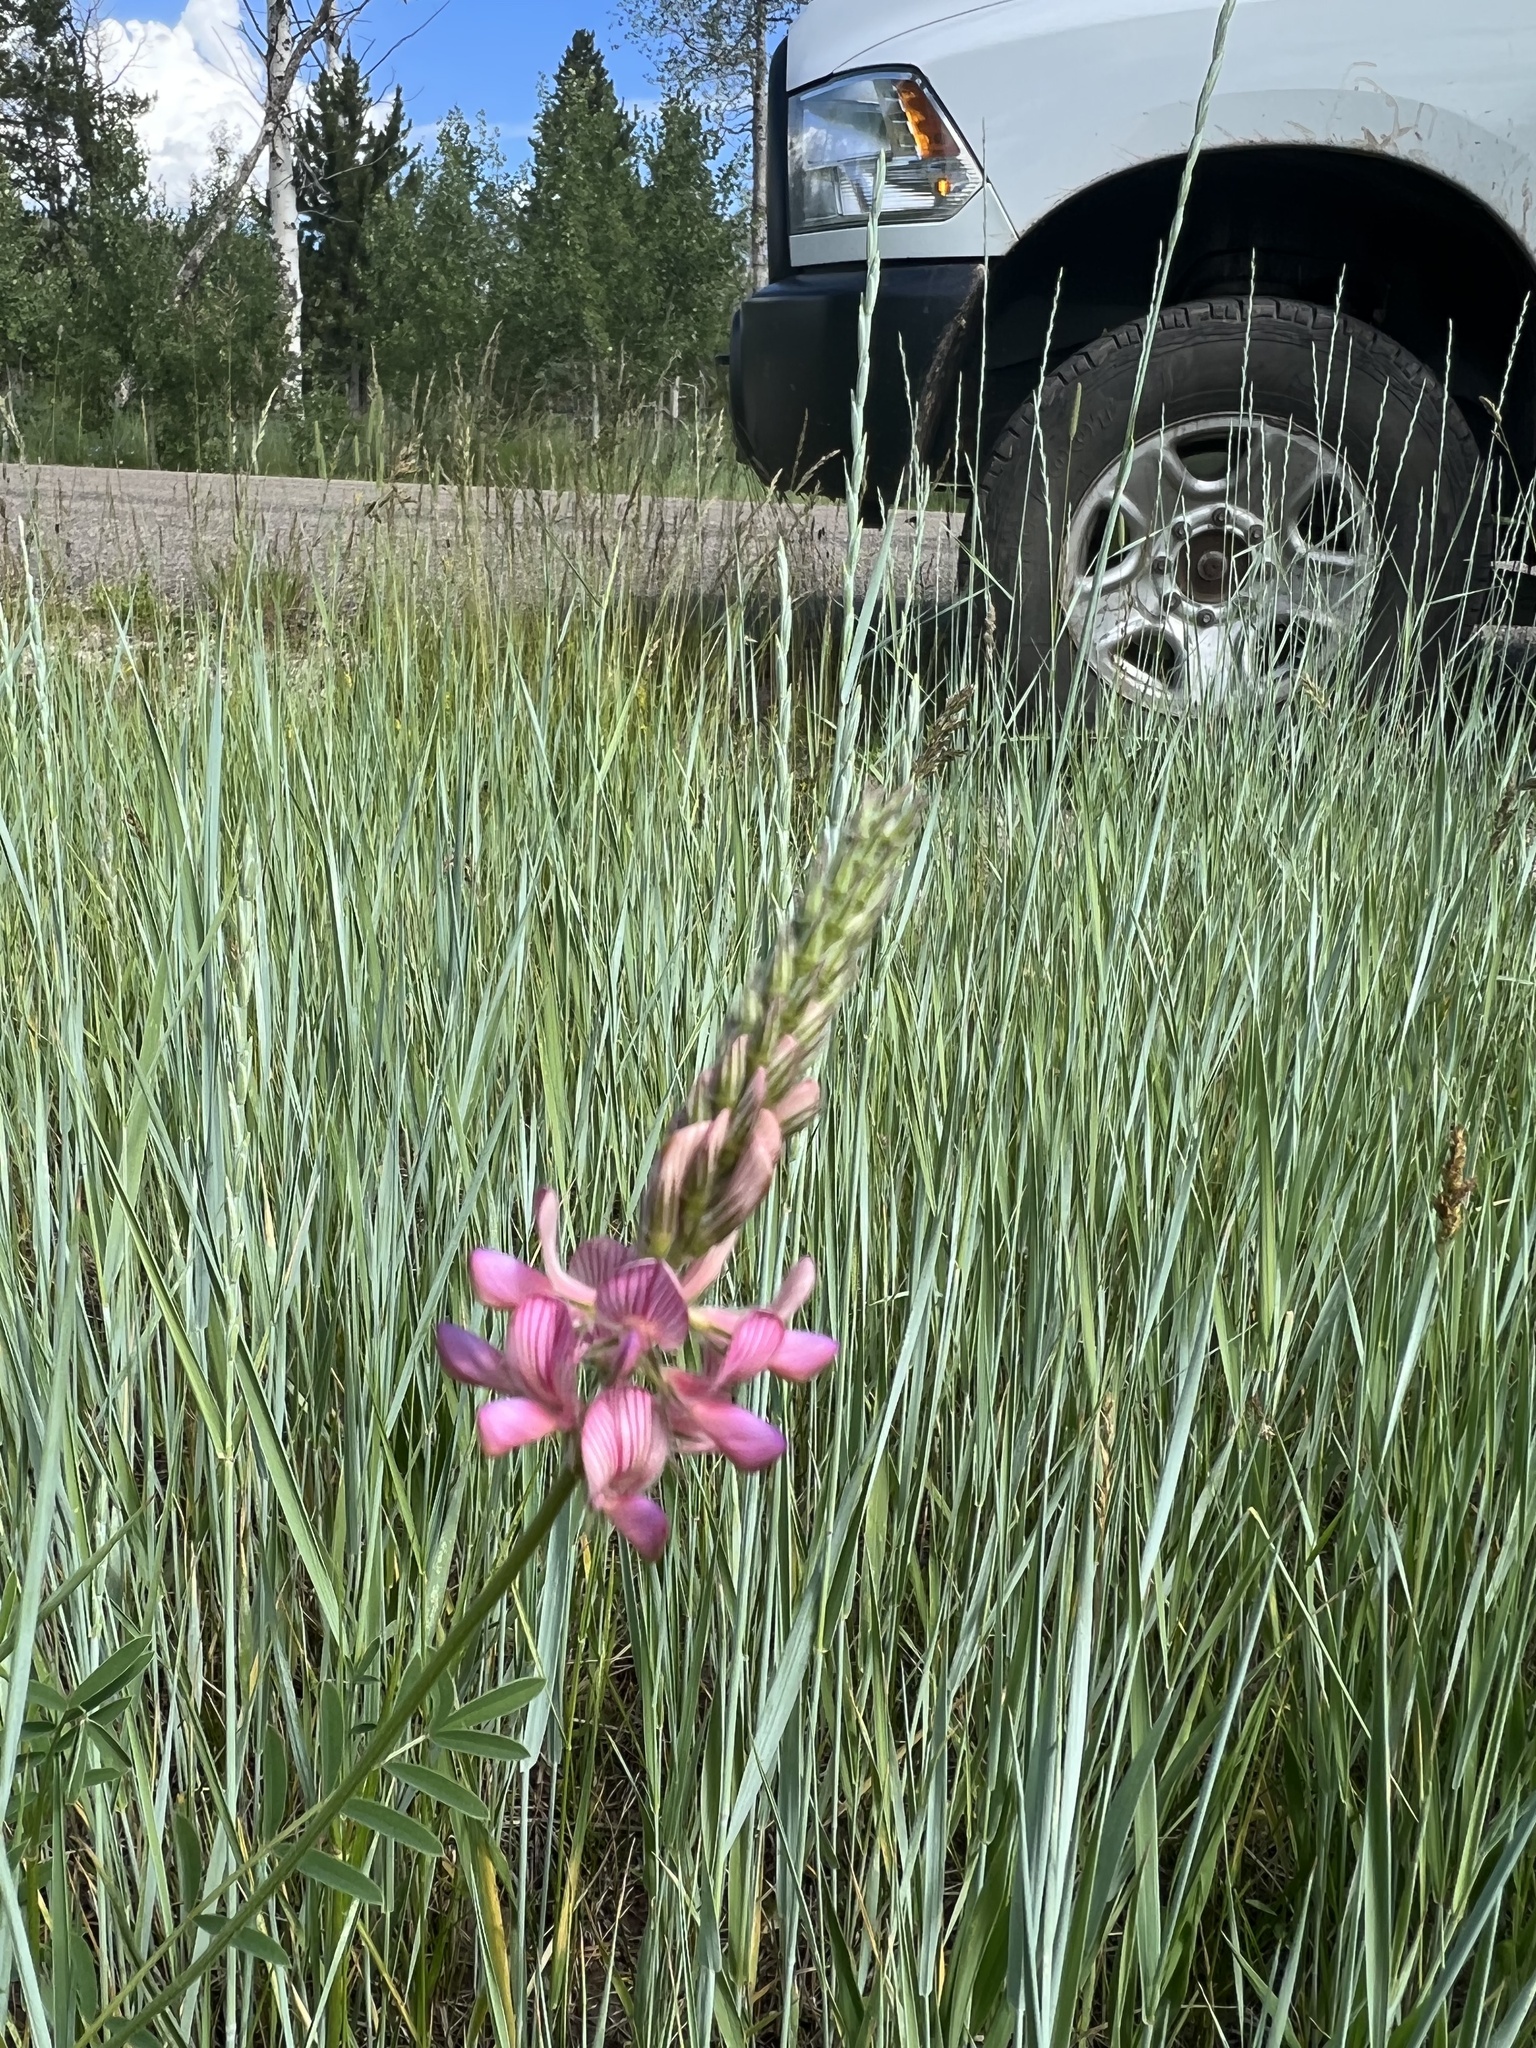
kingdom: Plantae
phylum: Tracheophyta
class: Magnoliopsida
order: Fabales
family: Fabaceae
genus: Onobrychis
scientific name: Onobrychis viciifolia
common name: Sainfoin
